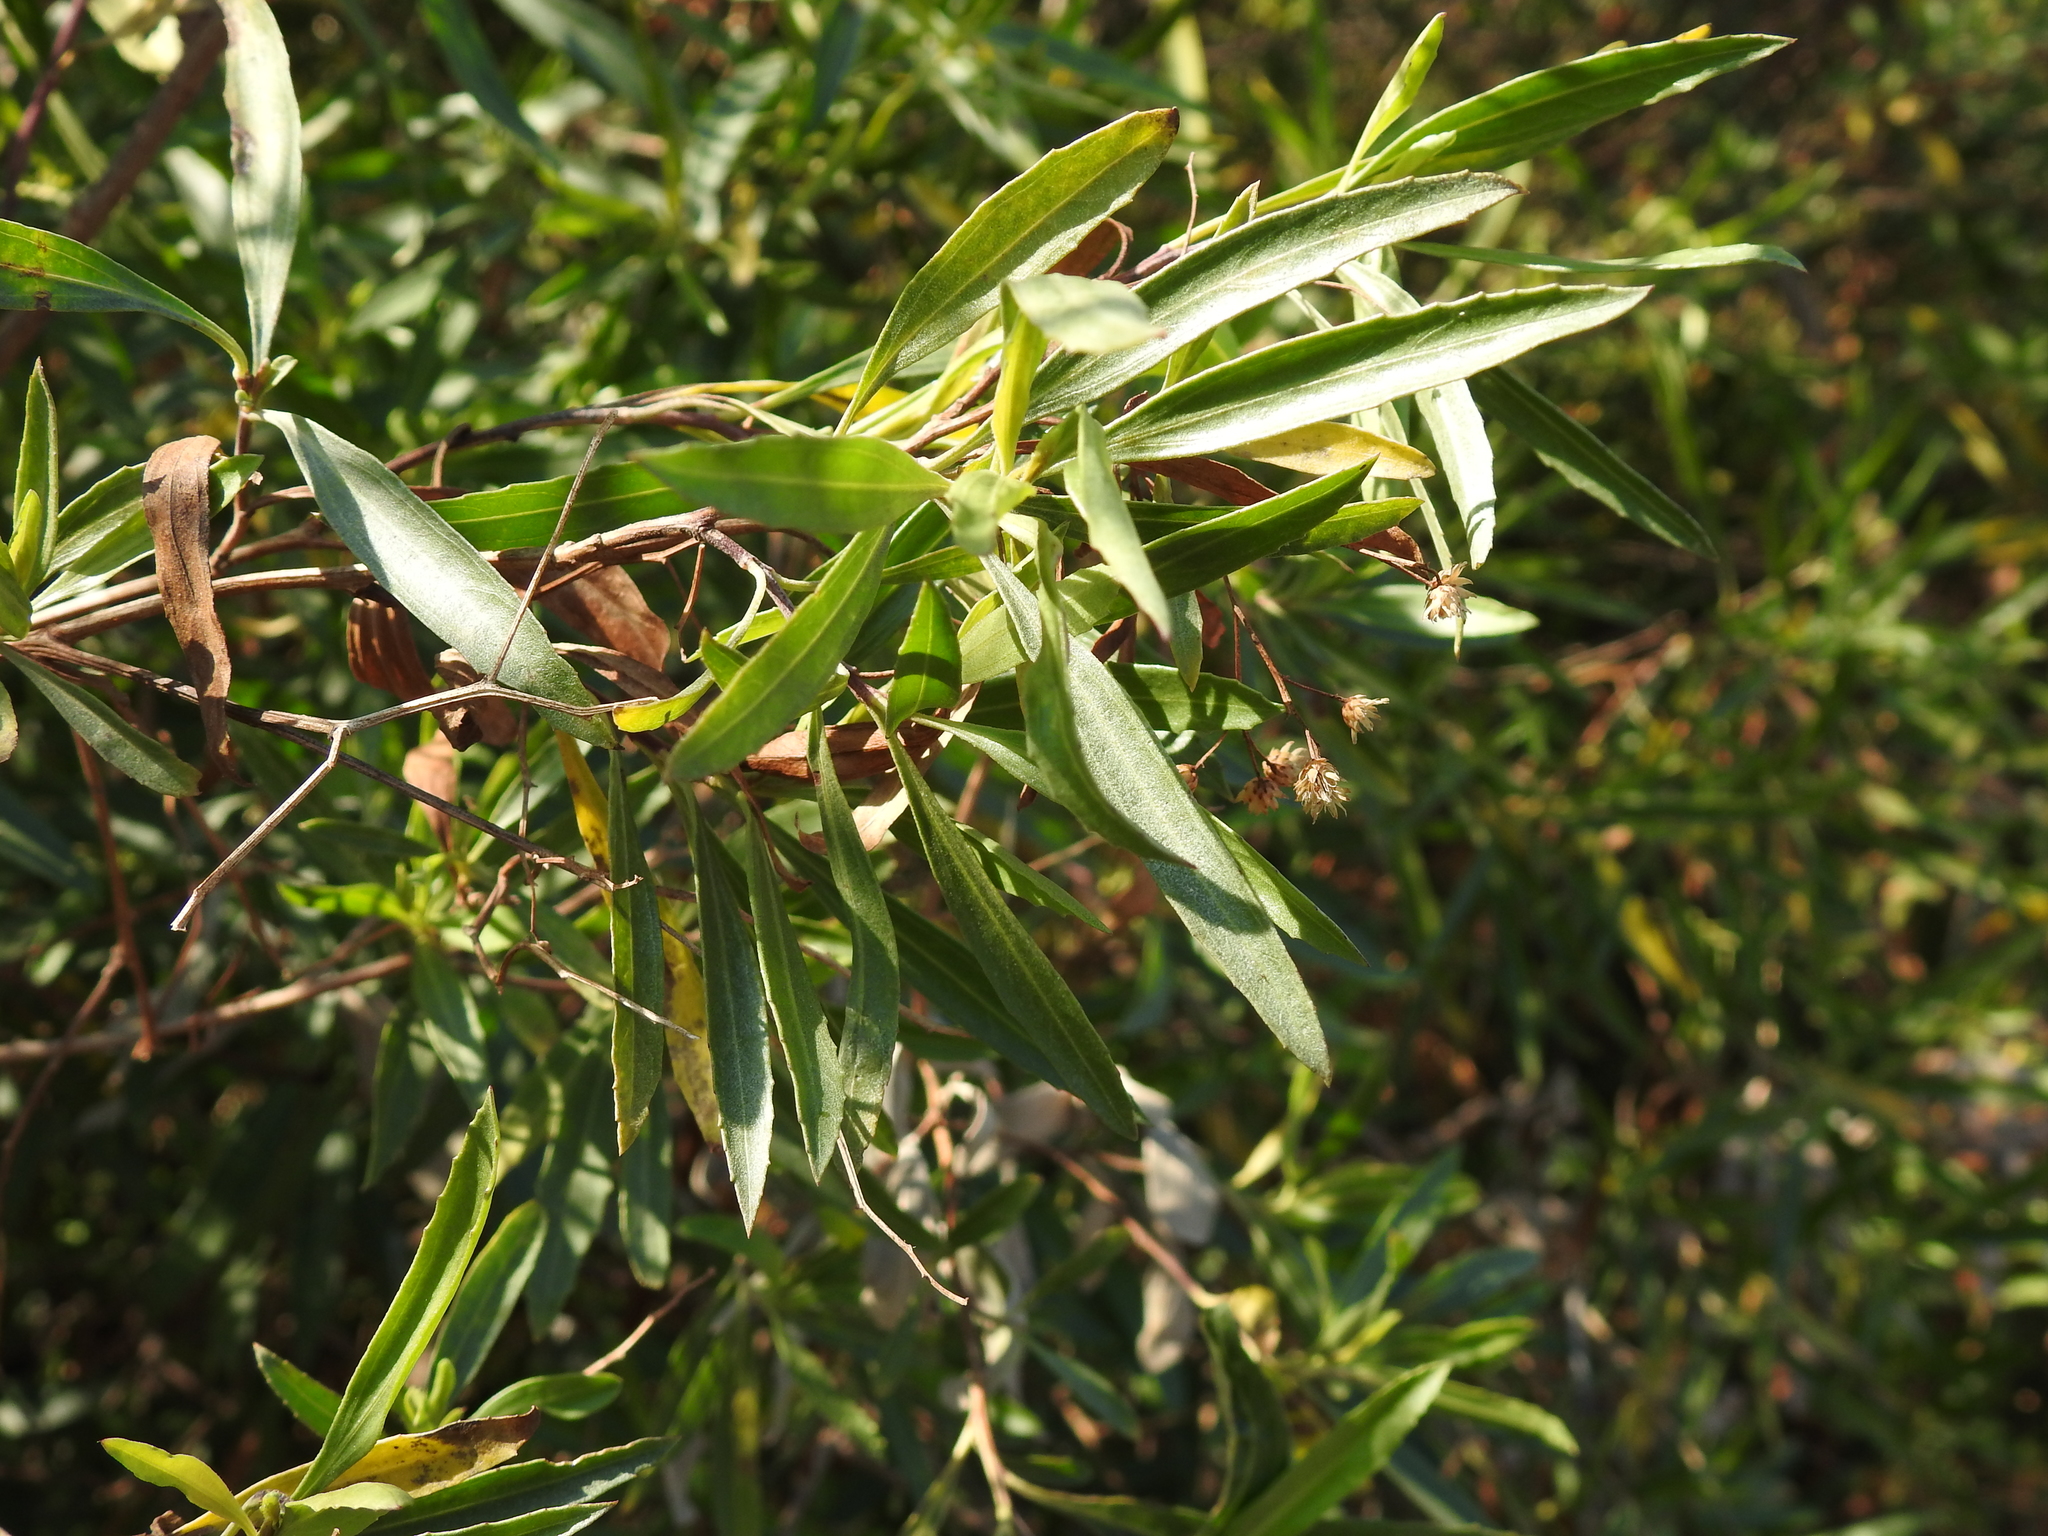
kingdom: Plantae
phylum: Tracheophyta
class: Magnoliopsida
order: Asterales
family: Asteraceae
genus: Baccharis
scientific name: Baccharis salicifolia
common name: Sticky baccharis
